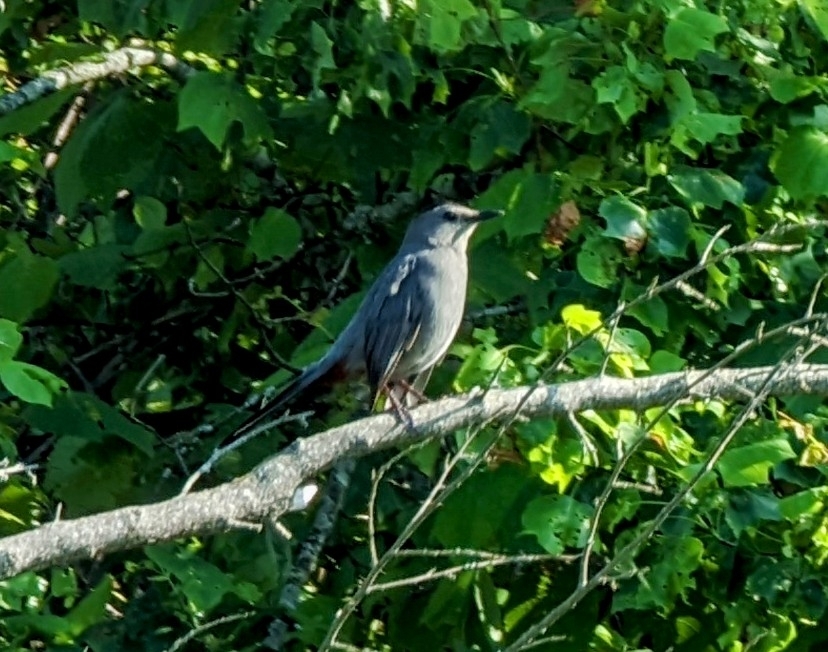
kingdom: Animalia
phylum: Chordata
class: Aves
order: Passeriformes
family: Mimidae
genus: Dumetella
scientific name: Dumetella carolinensis
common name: Gray catbird
